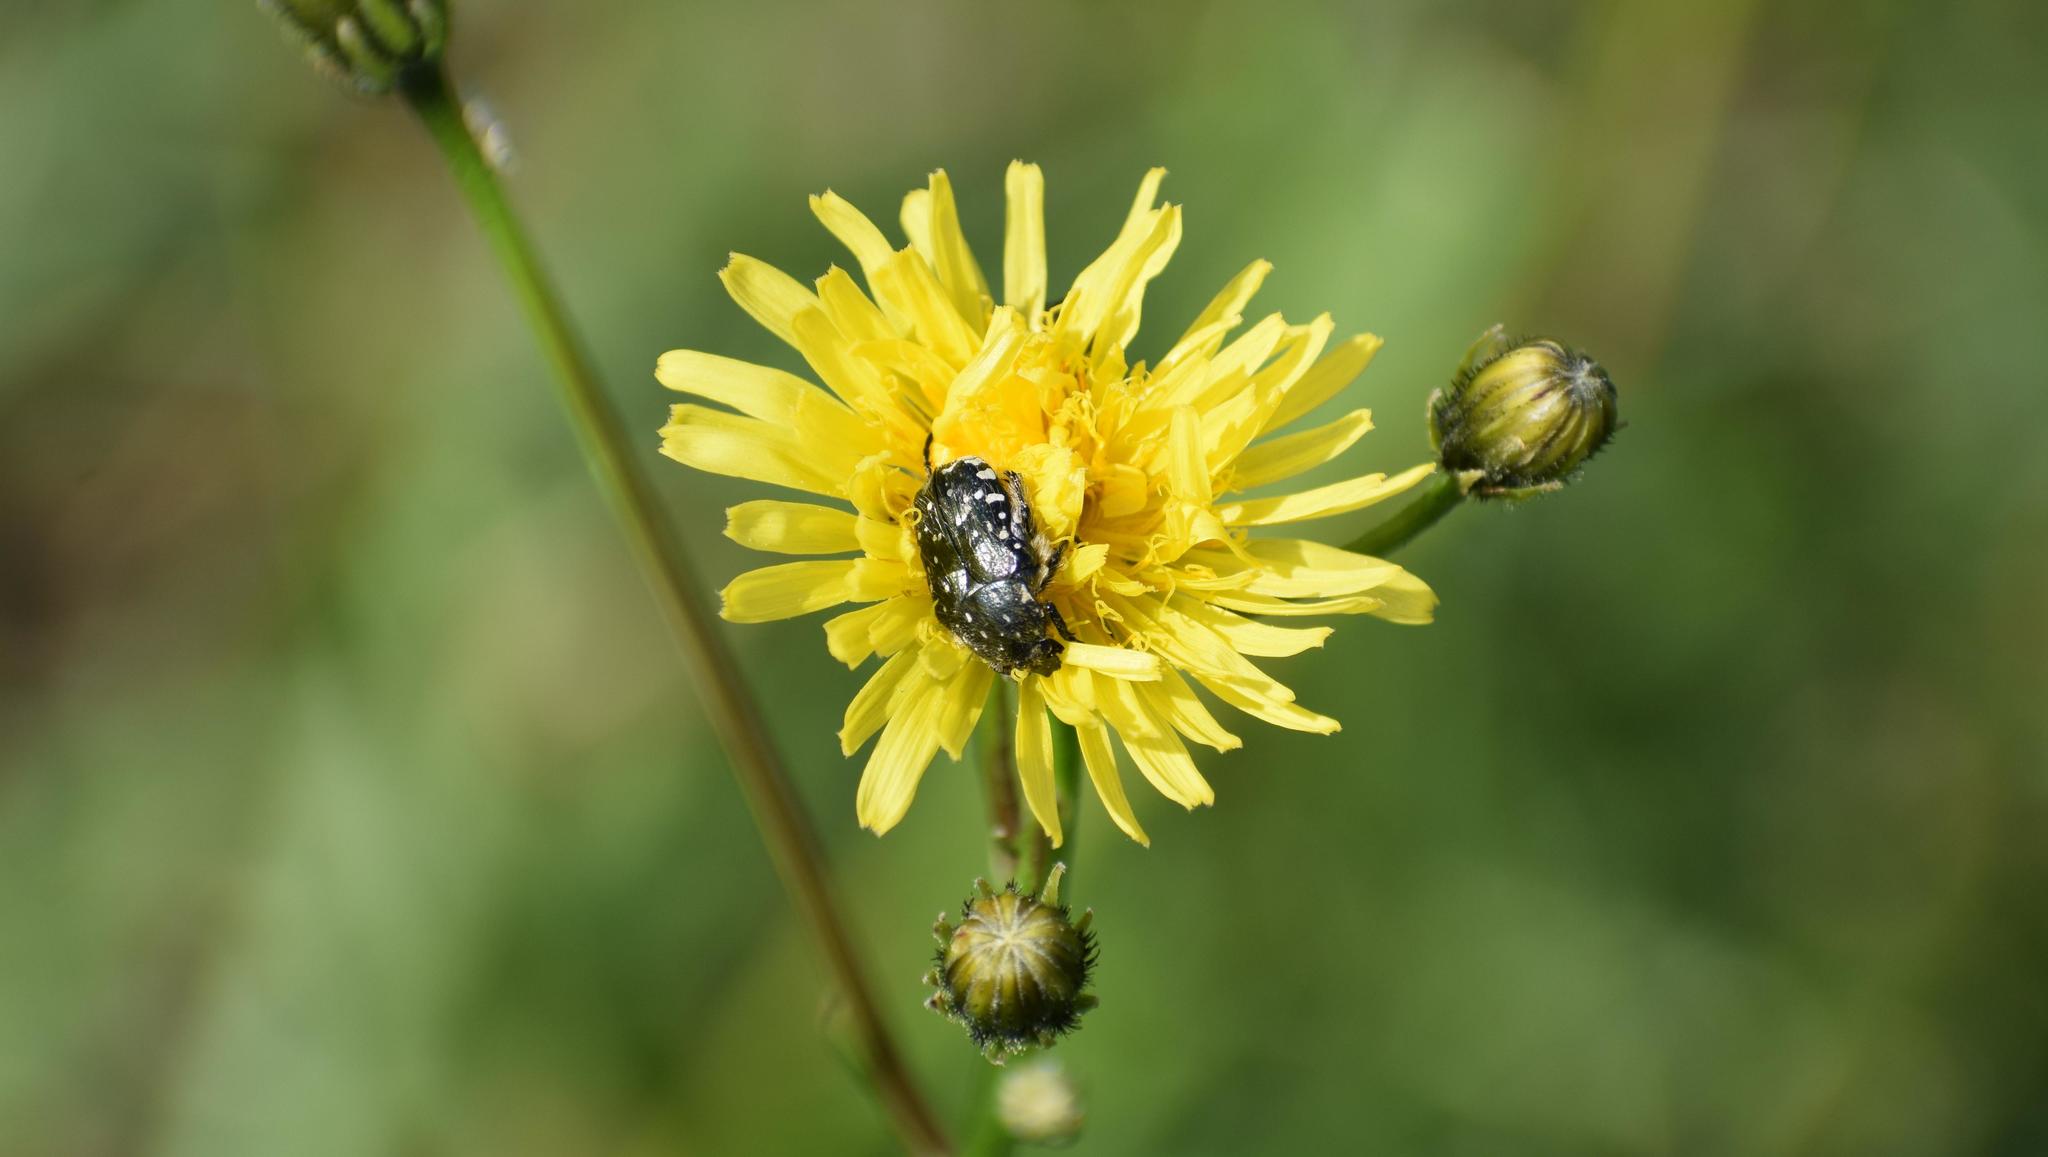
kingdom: Plantae
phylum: Tracheophyta
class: Magnoliopsida
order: Asterales
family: Asteraceae
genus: Crepis
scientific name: Crepis biennis
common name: Rough hawk's-beard
